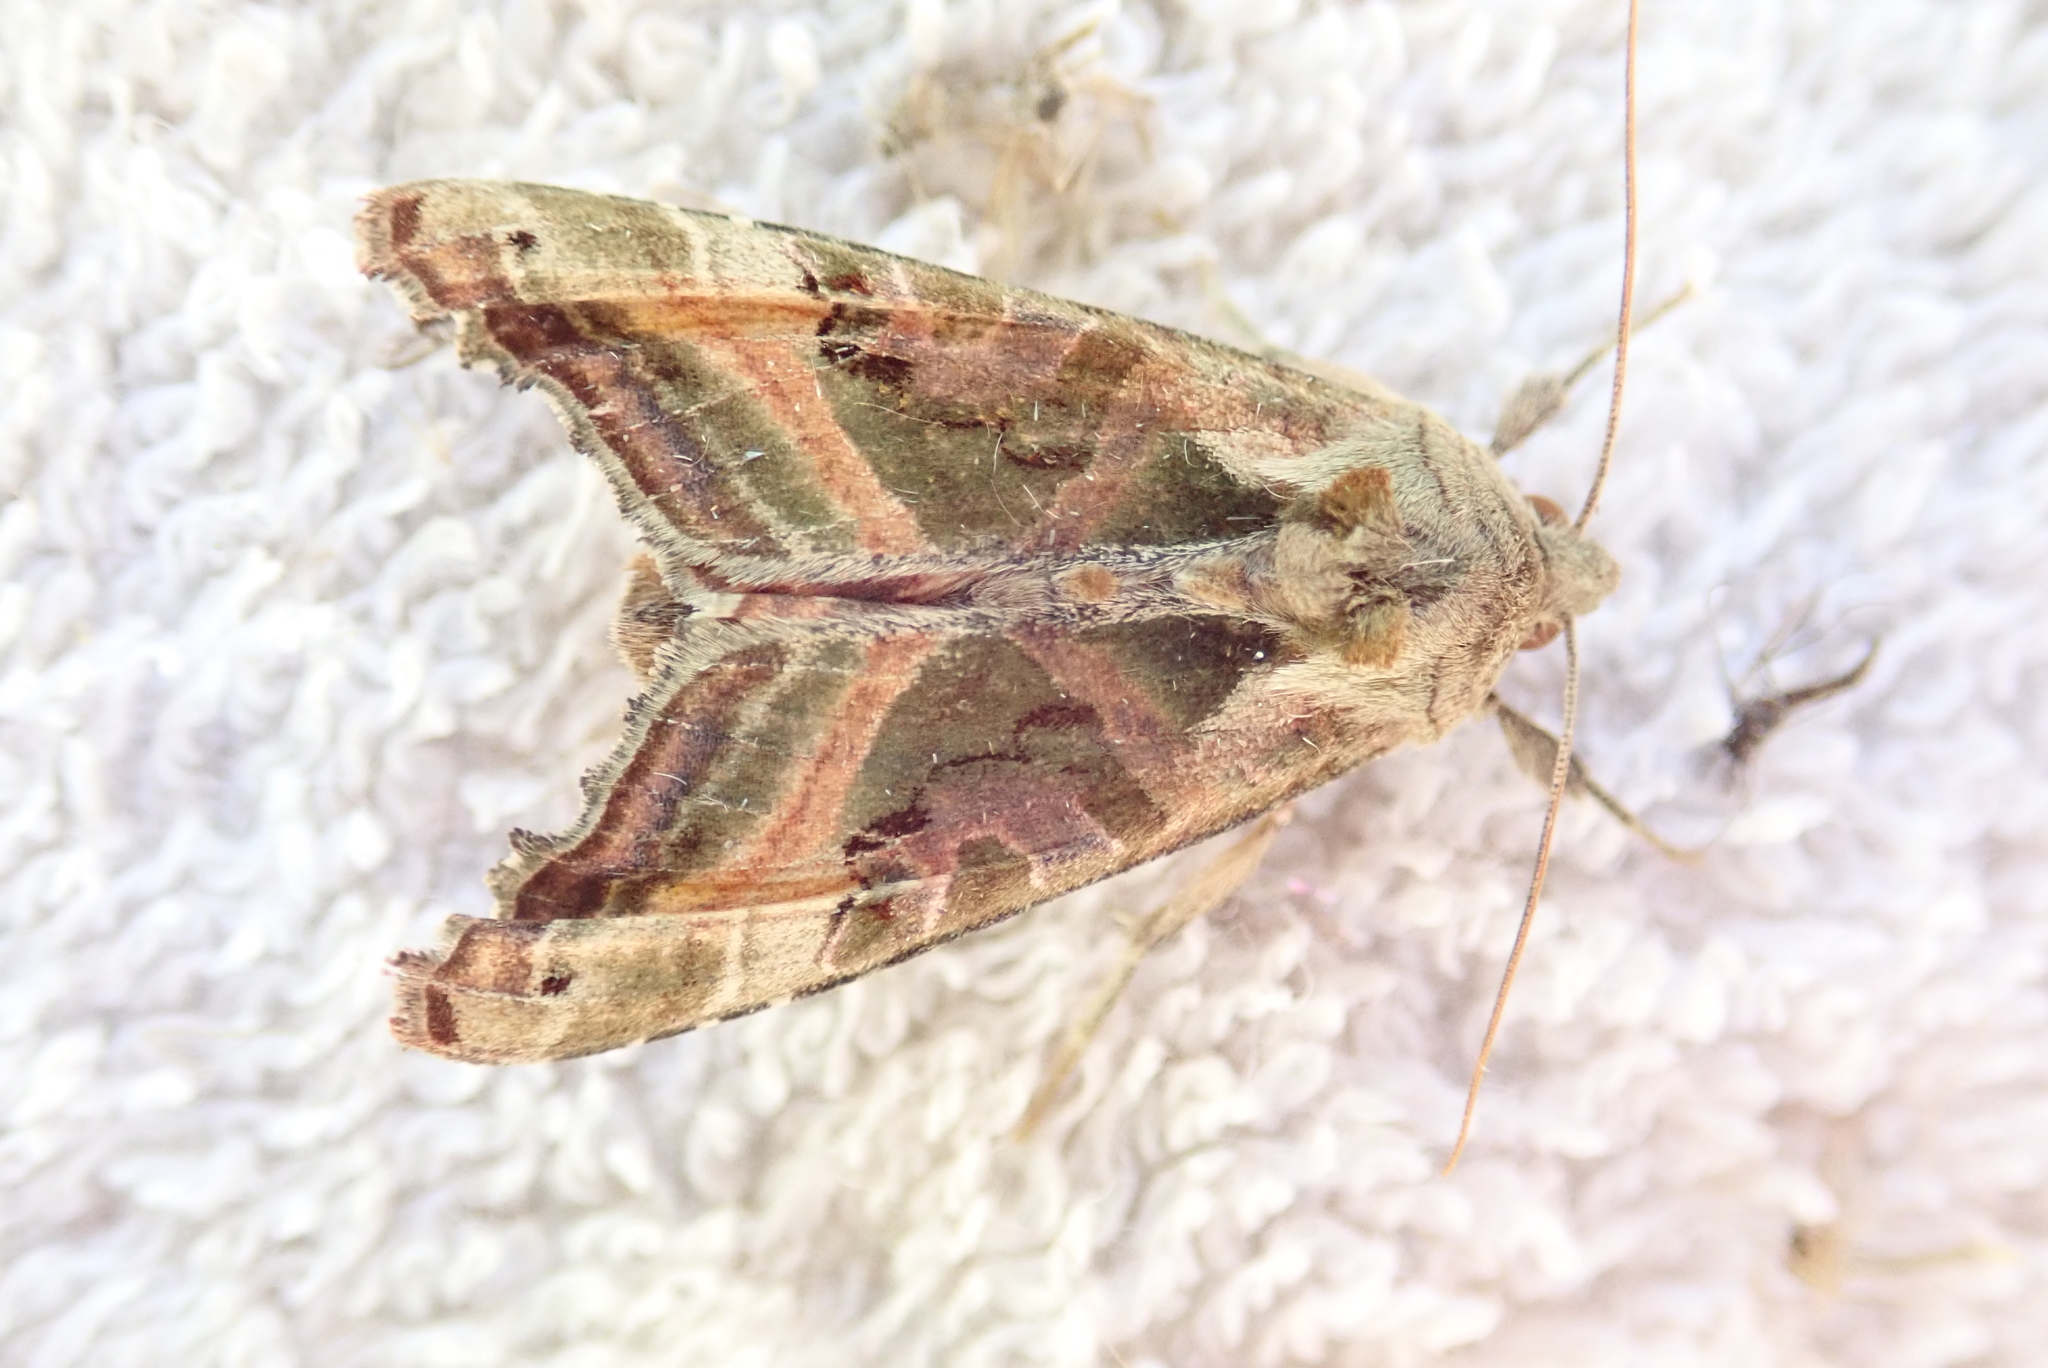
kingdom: Animalia
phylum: Arthropoda
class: Insecta
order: Lepidoptera
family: Noctuidae
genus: Phlogophora
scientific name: Phlogophora iris
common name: Olive angle shades
